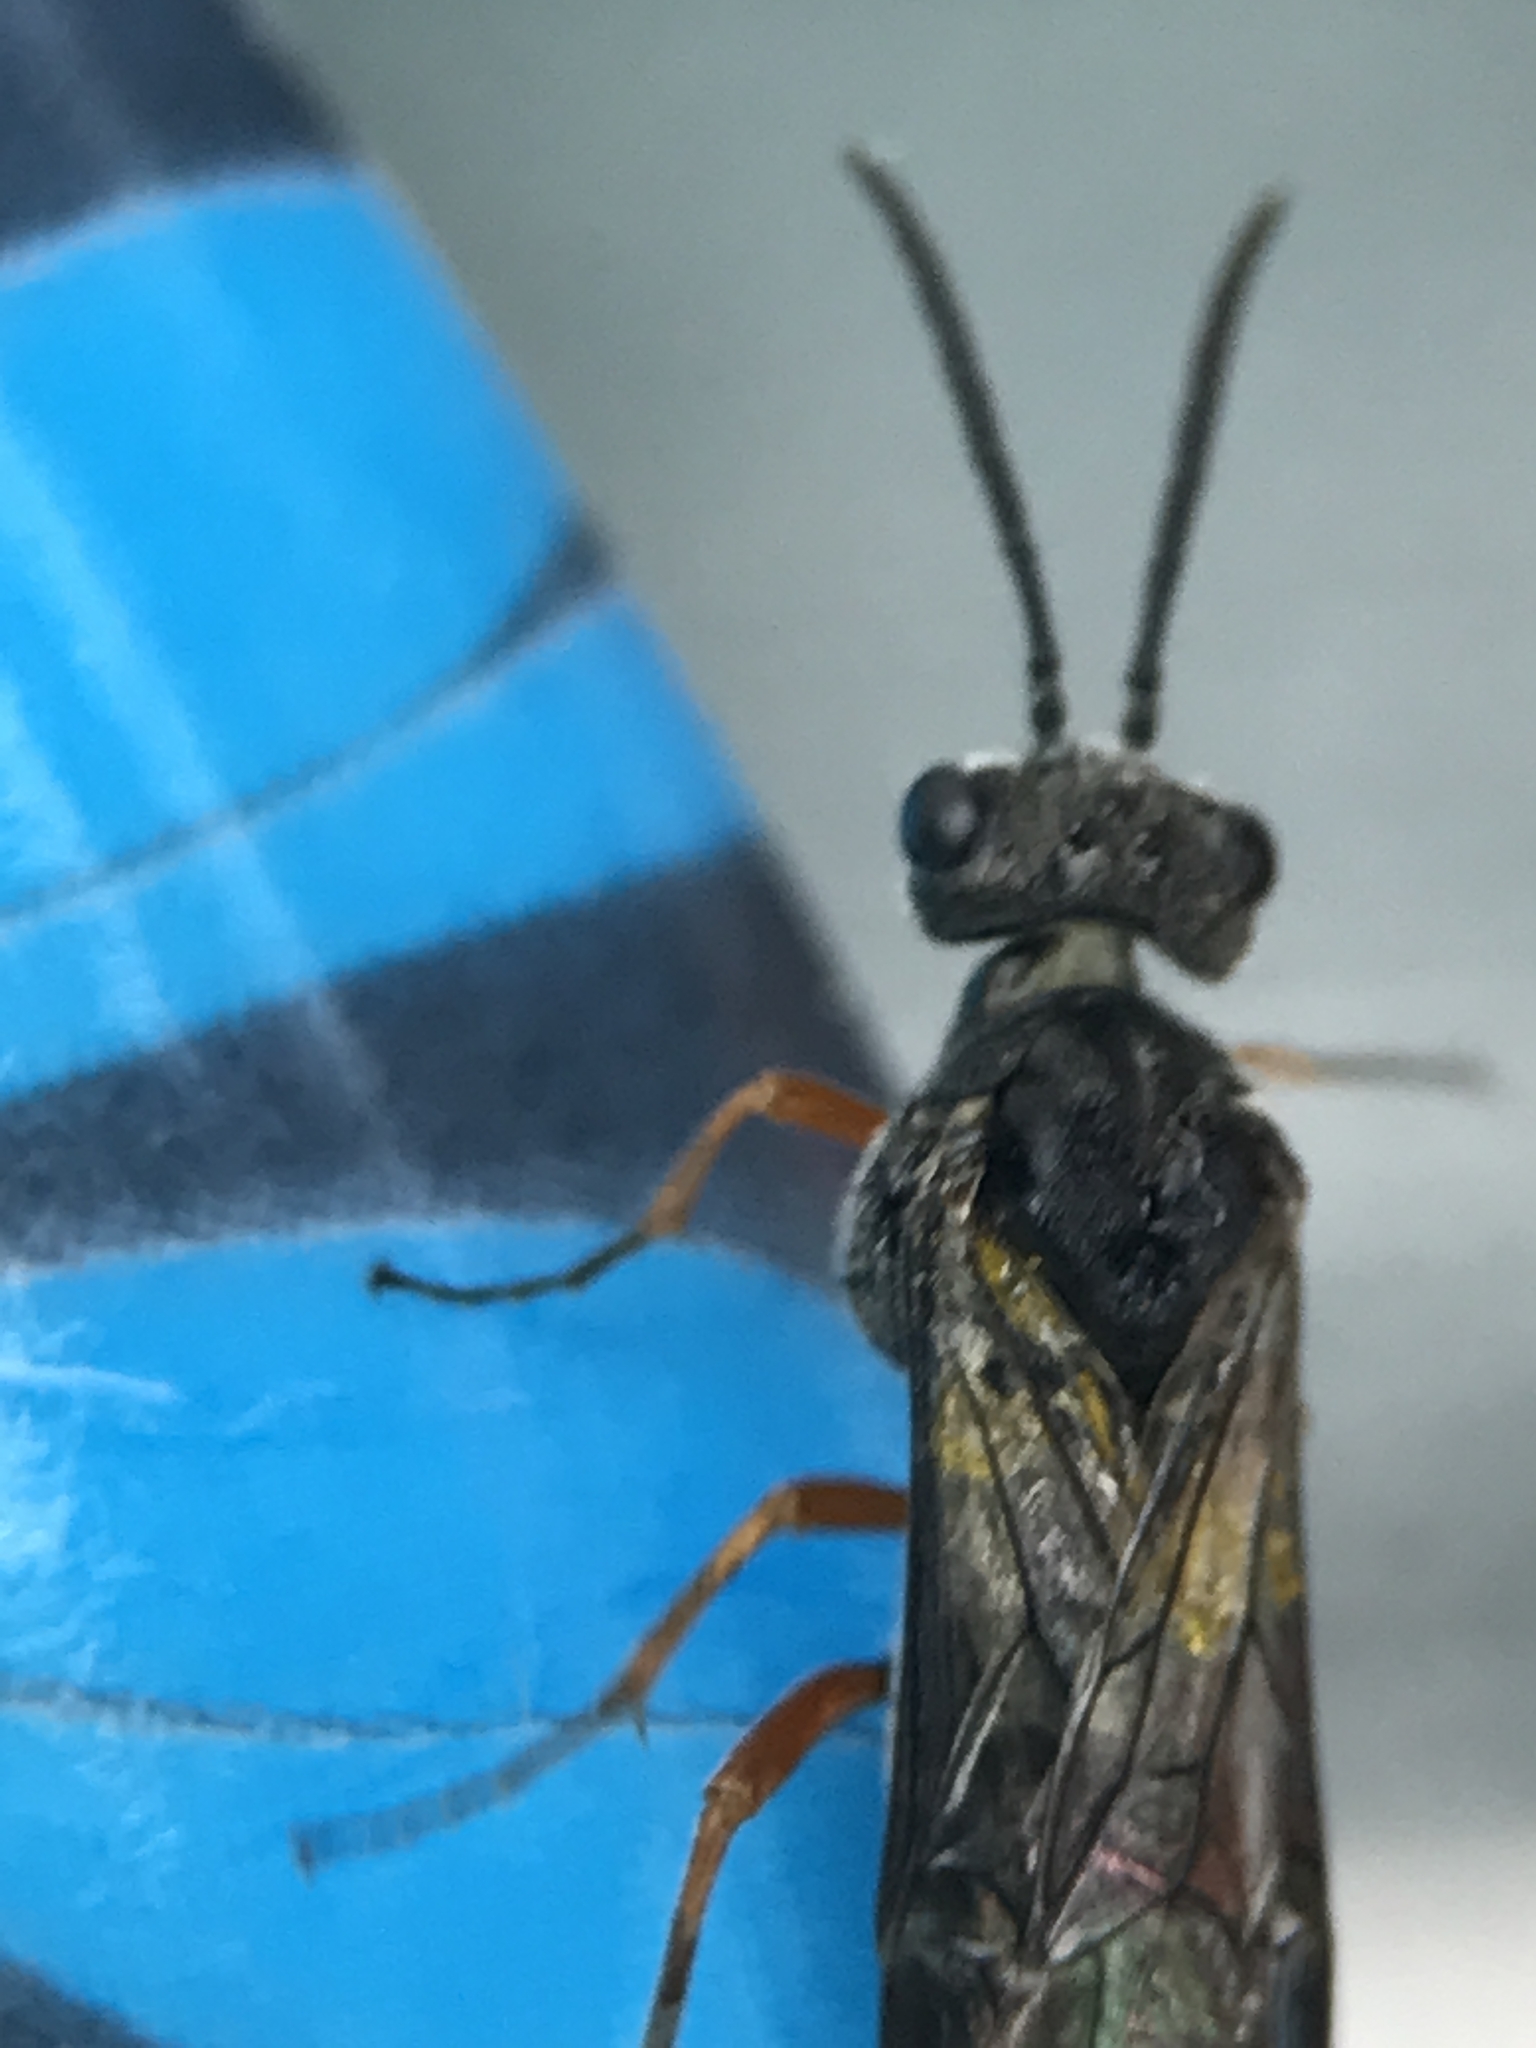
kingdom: Animalia
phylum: Arthropoda
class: Insecta
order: Hymenoptera
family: Tenthredinidae
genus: Dolerus
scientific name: Dolerus vestigialis
